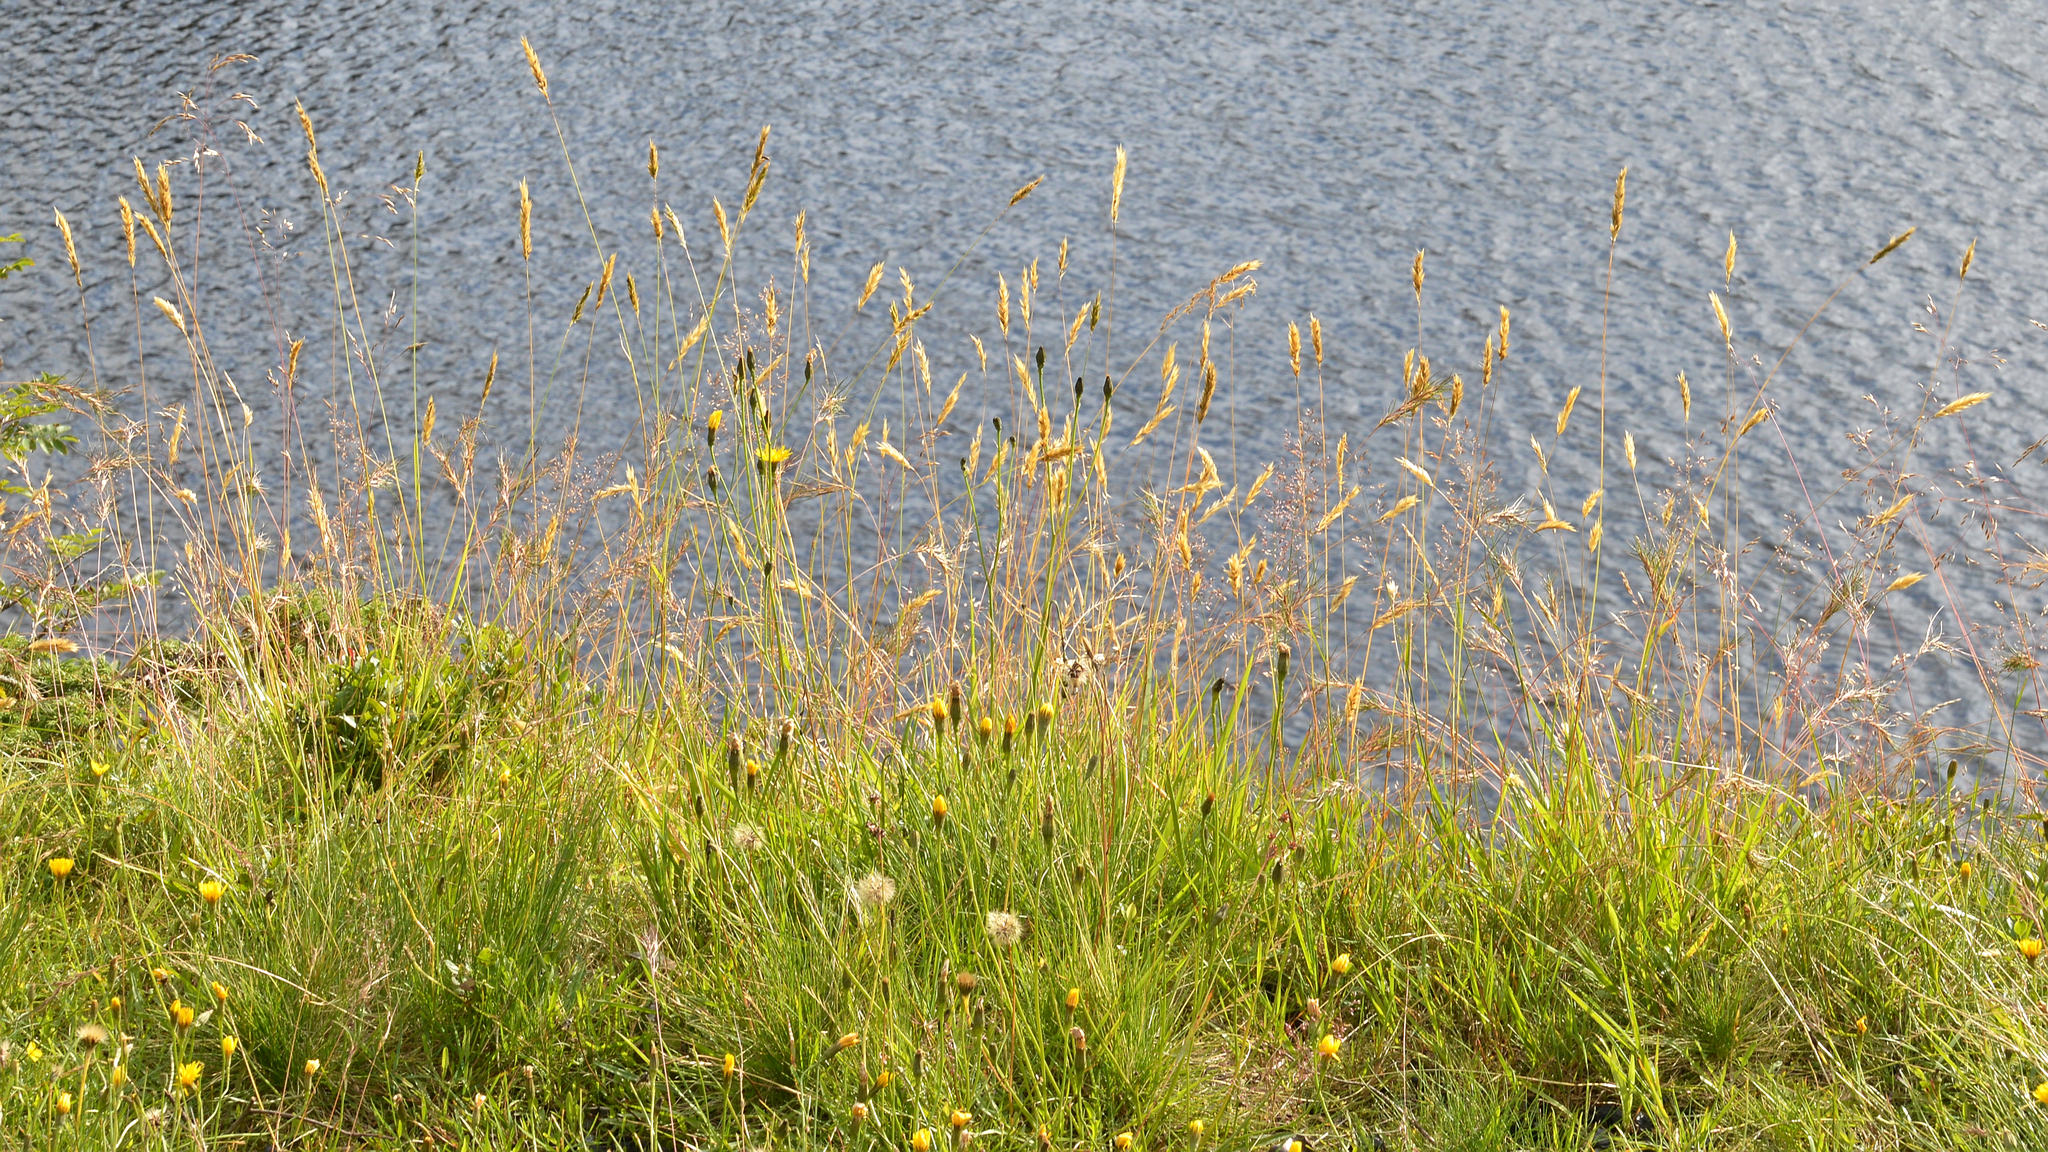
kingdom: Plantae
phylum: Tracheophyta
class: Liliopsida
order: Poales
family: Poaceae
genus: Anthoxanthum
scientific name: Anthoxanthum odoratum
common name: Sweet vernalgrass
